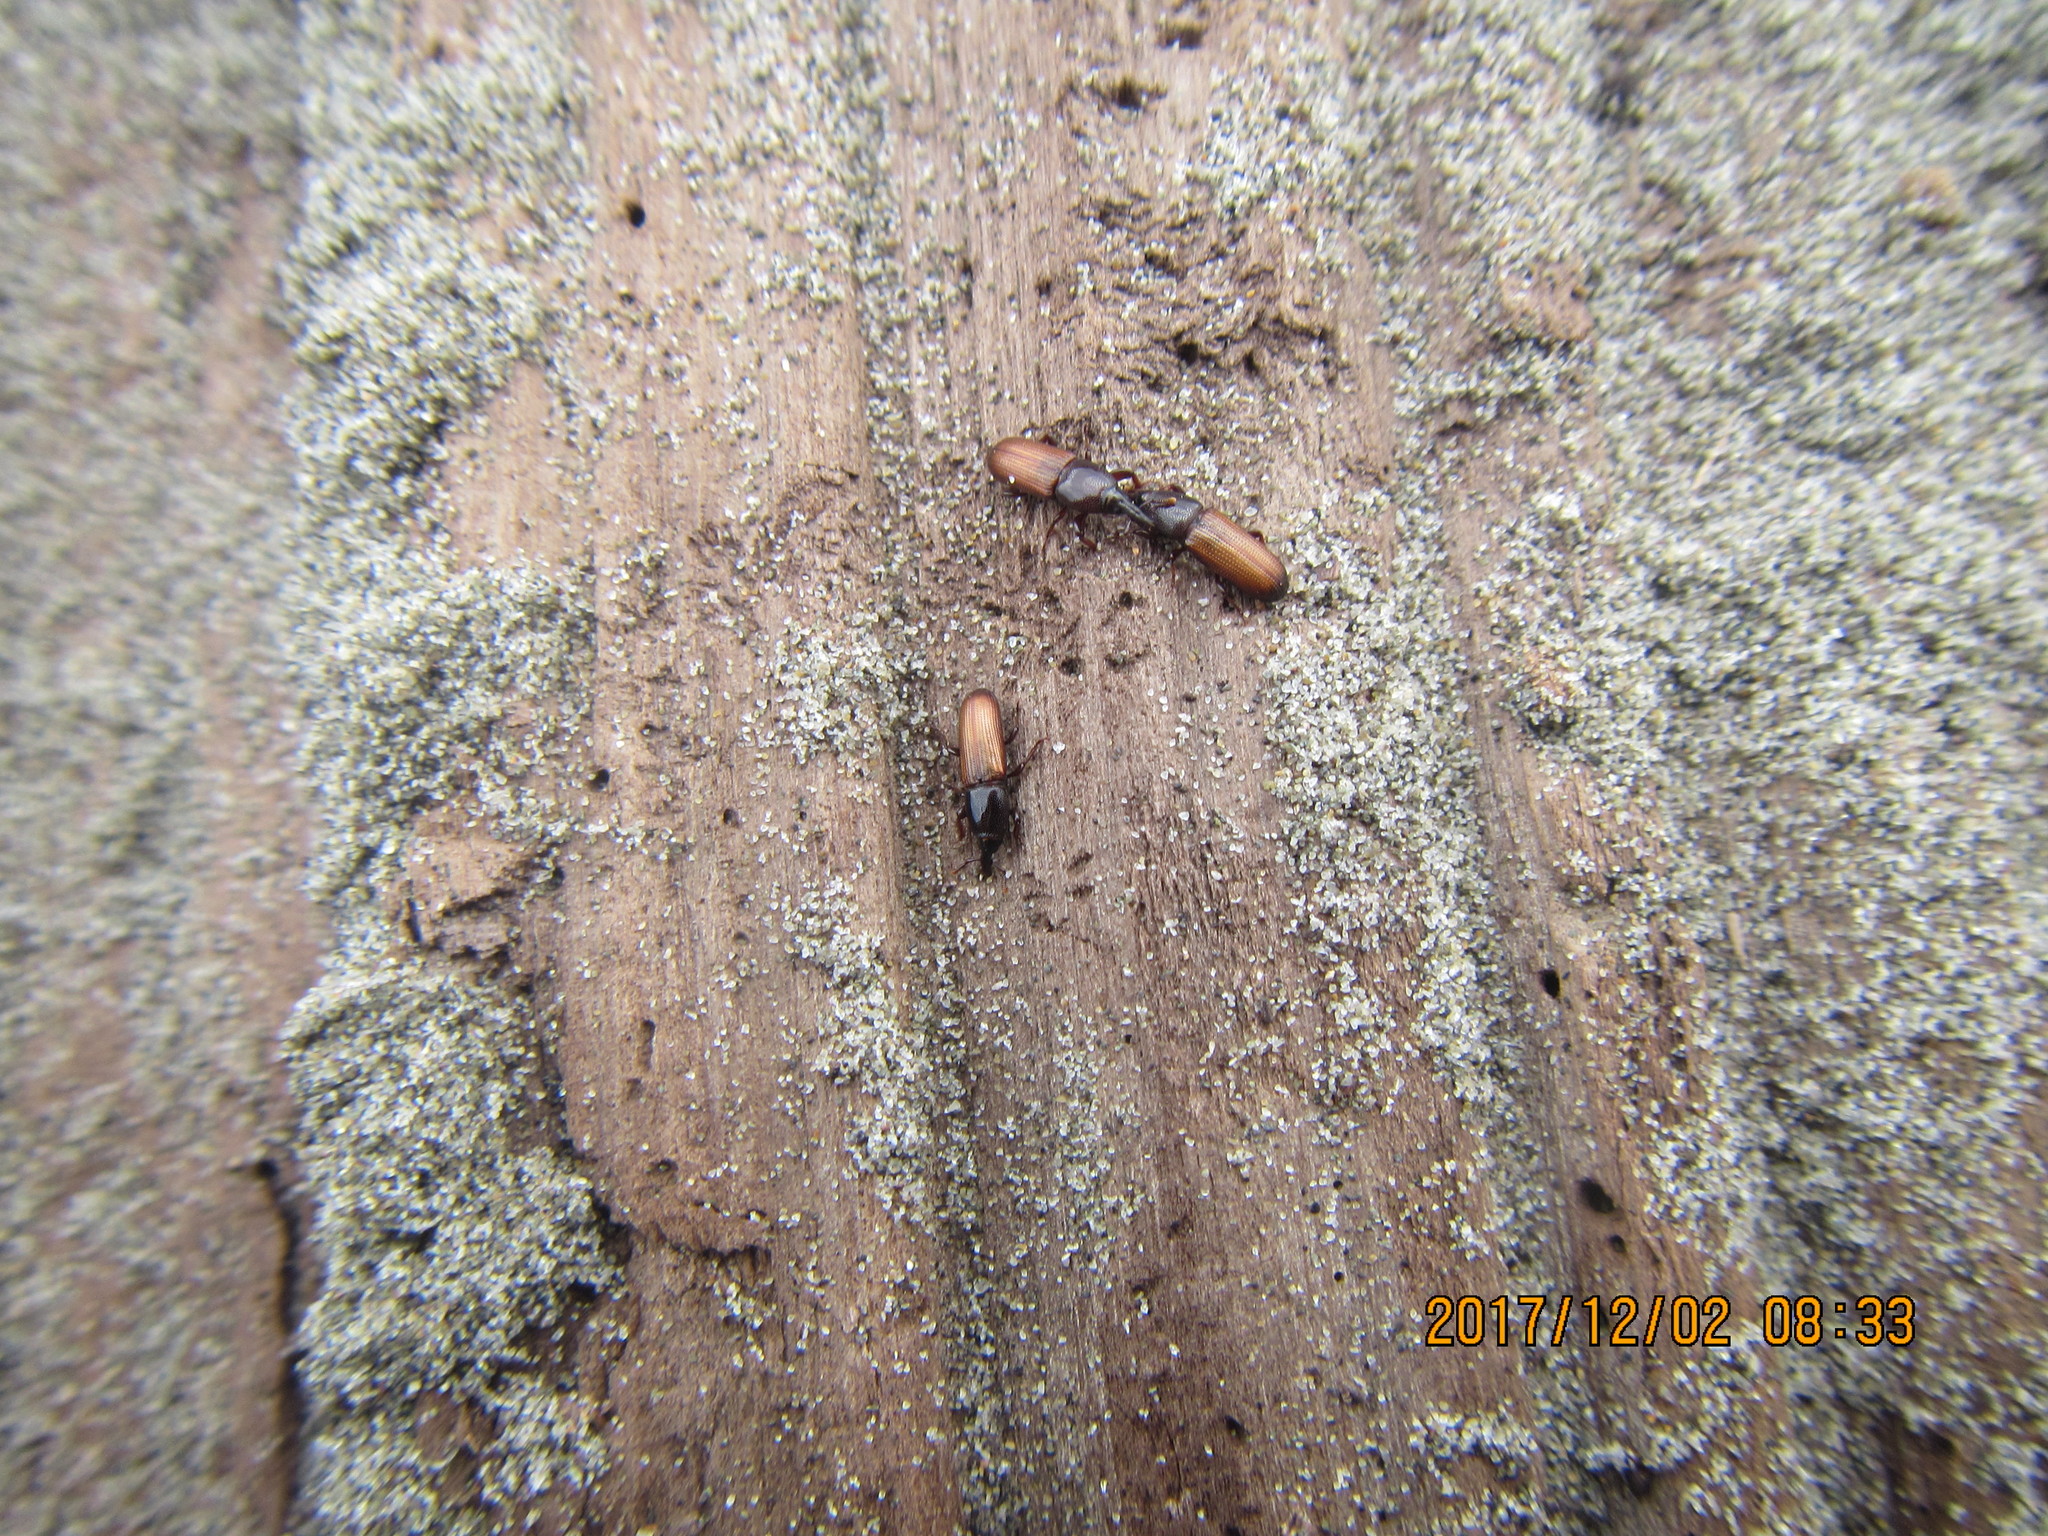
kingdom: Animalia
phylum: Arthropoda
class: Insecta
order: Coleoptera
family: Curculionidae
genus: Mesites
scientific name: Mesites pallidipennis
